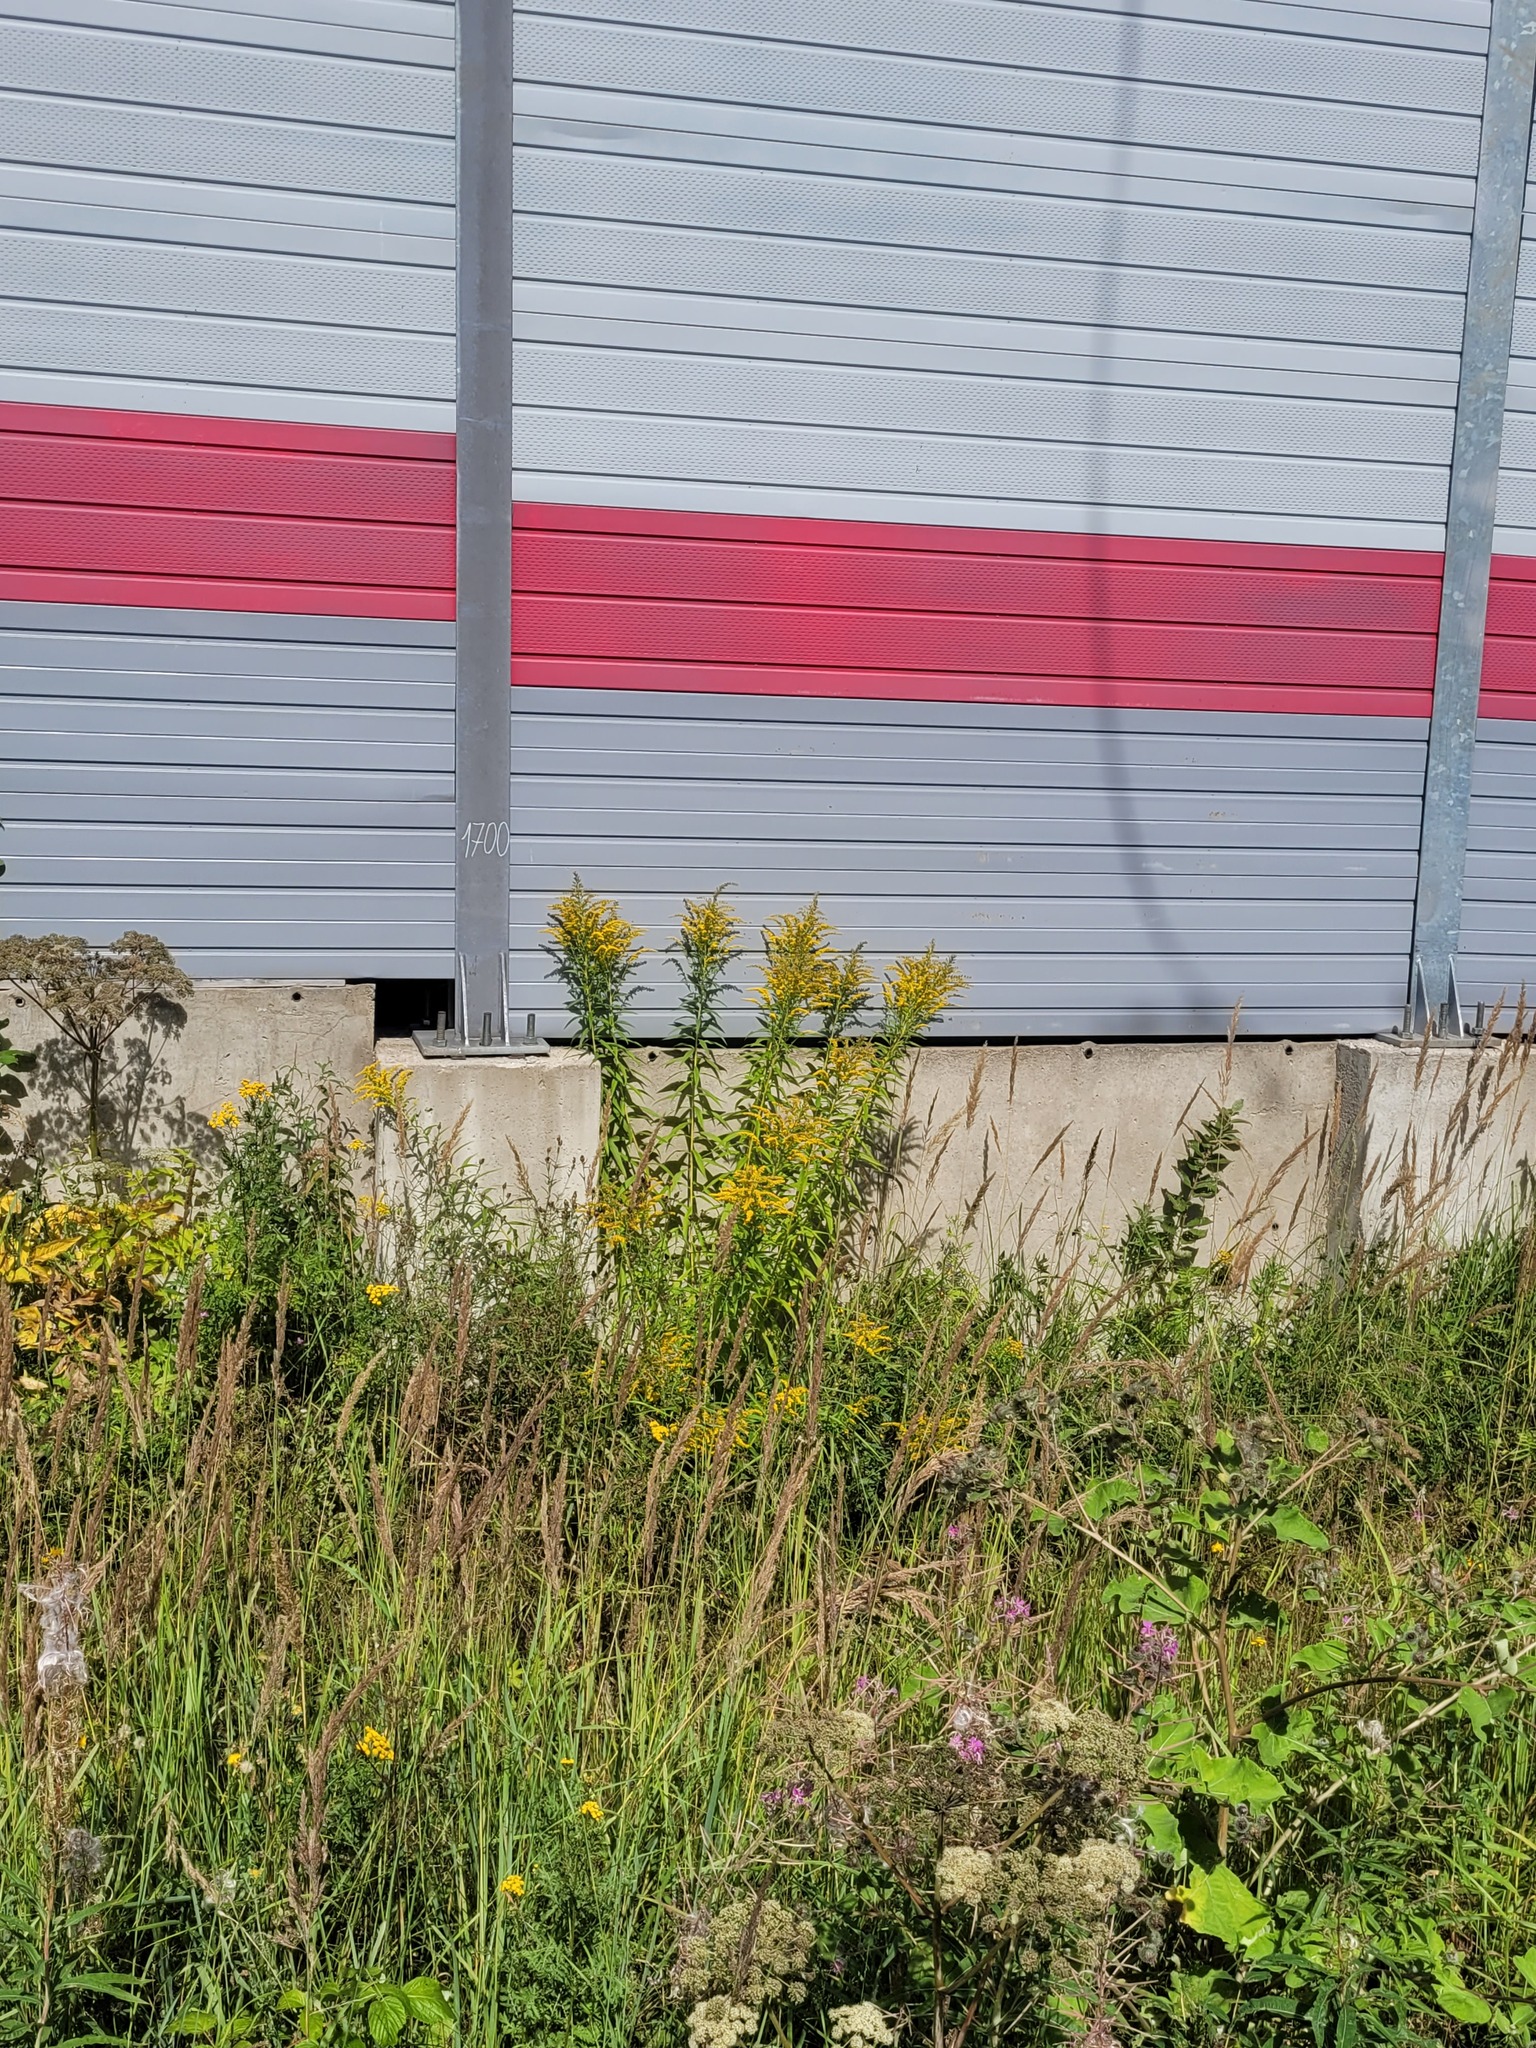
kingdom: Plantae
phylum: Tracheophyta
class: Magnoliopsida
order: Asterales
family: Asteraceae
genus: Solidago
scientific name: Solidago canadensis
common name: Canada goldenrod
